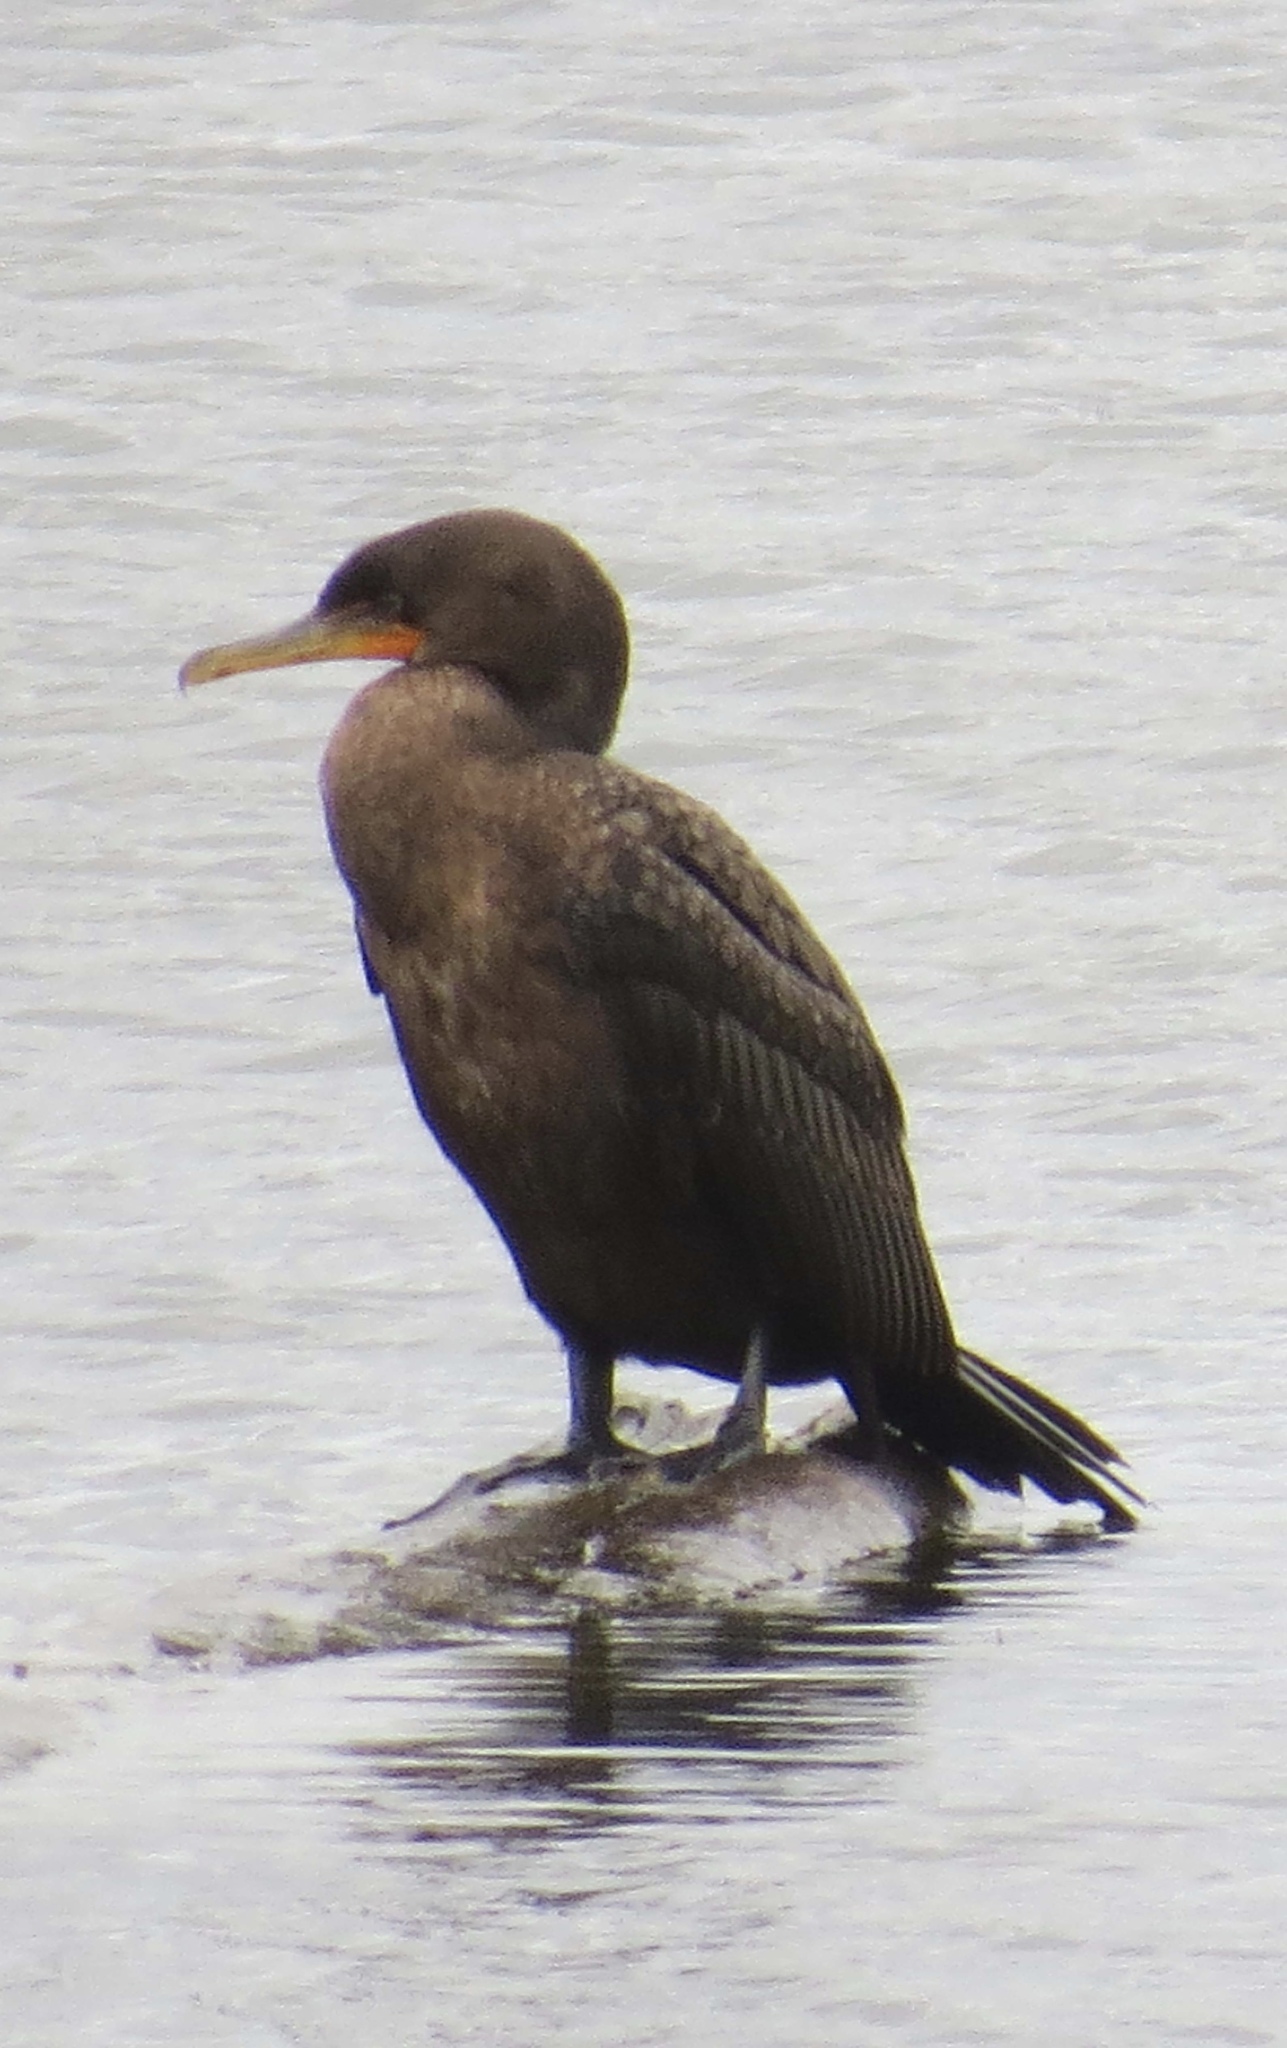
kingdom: Animalia
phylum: Chordata
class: Aves
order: Suliformes
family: Phalacrocoracidae
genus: Phalacrocorax
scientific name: Phalacrocorax auritus
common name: Double-crested cormorant
